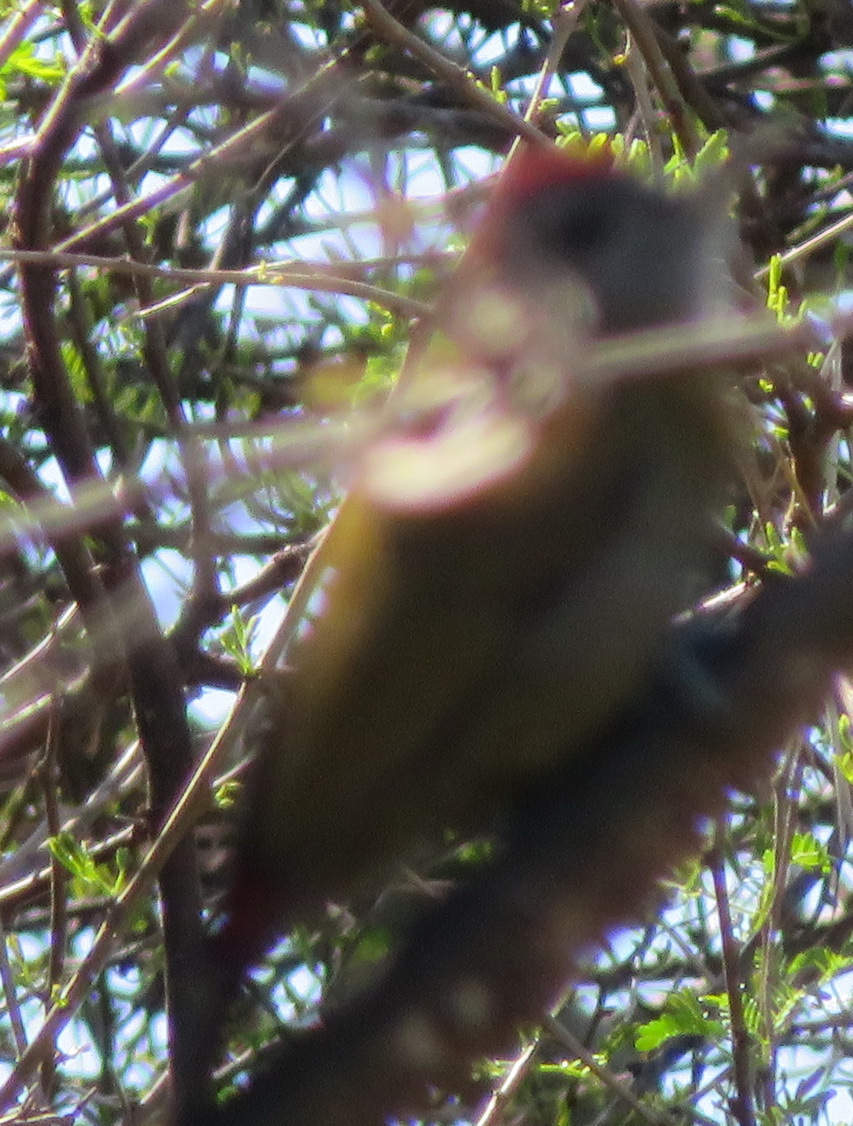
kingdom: Animalia
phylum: Chordata
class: Aves
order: Piciformes
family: Picidae
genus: Dendropicos
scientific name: Dendropicos griseocephalus
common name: Olive woodpecker
